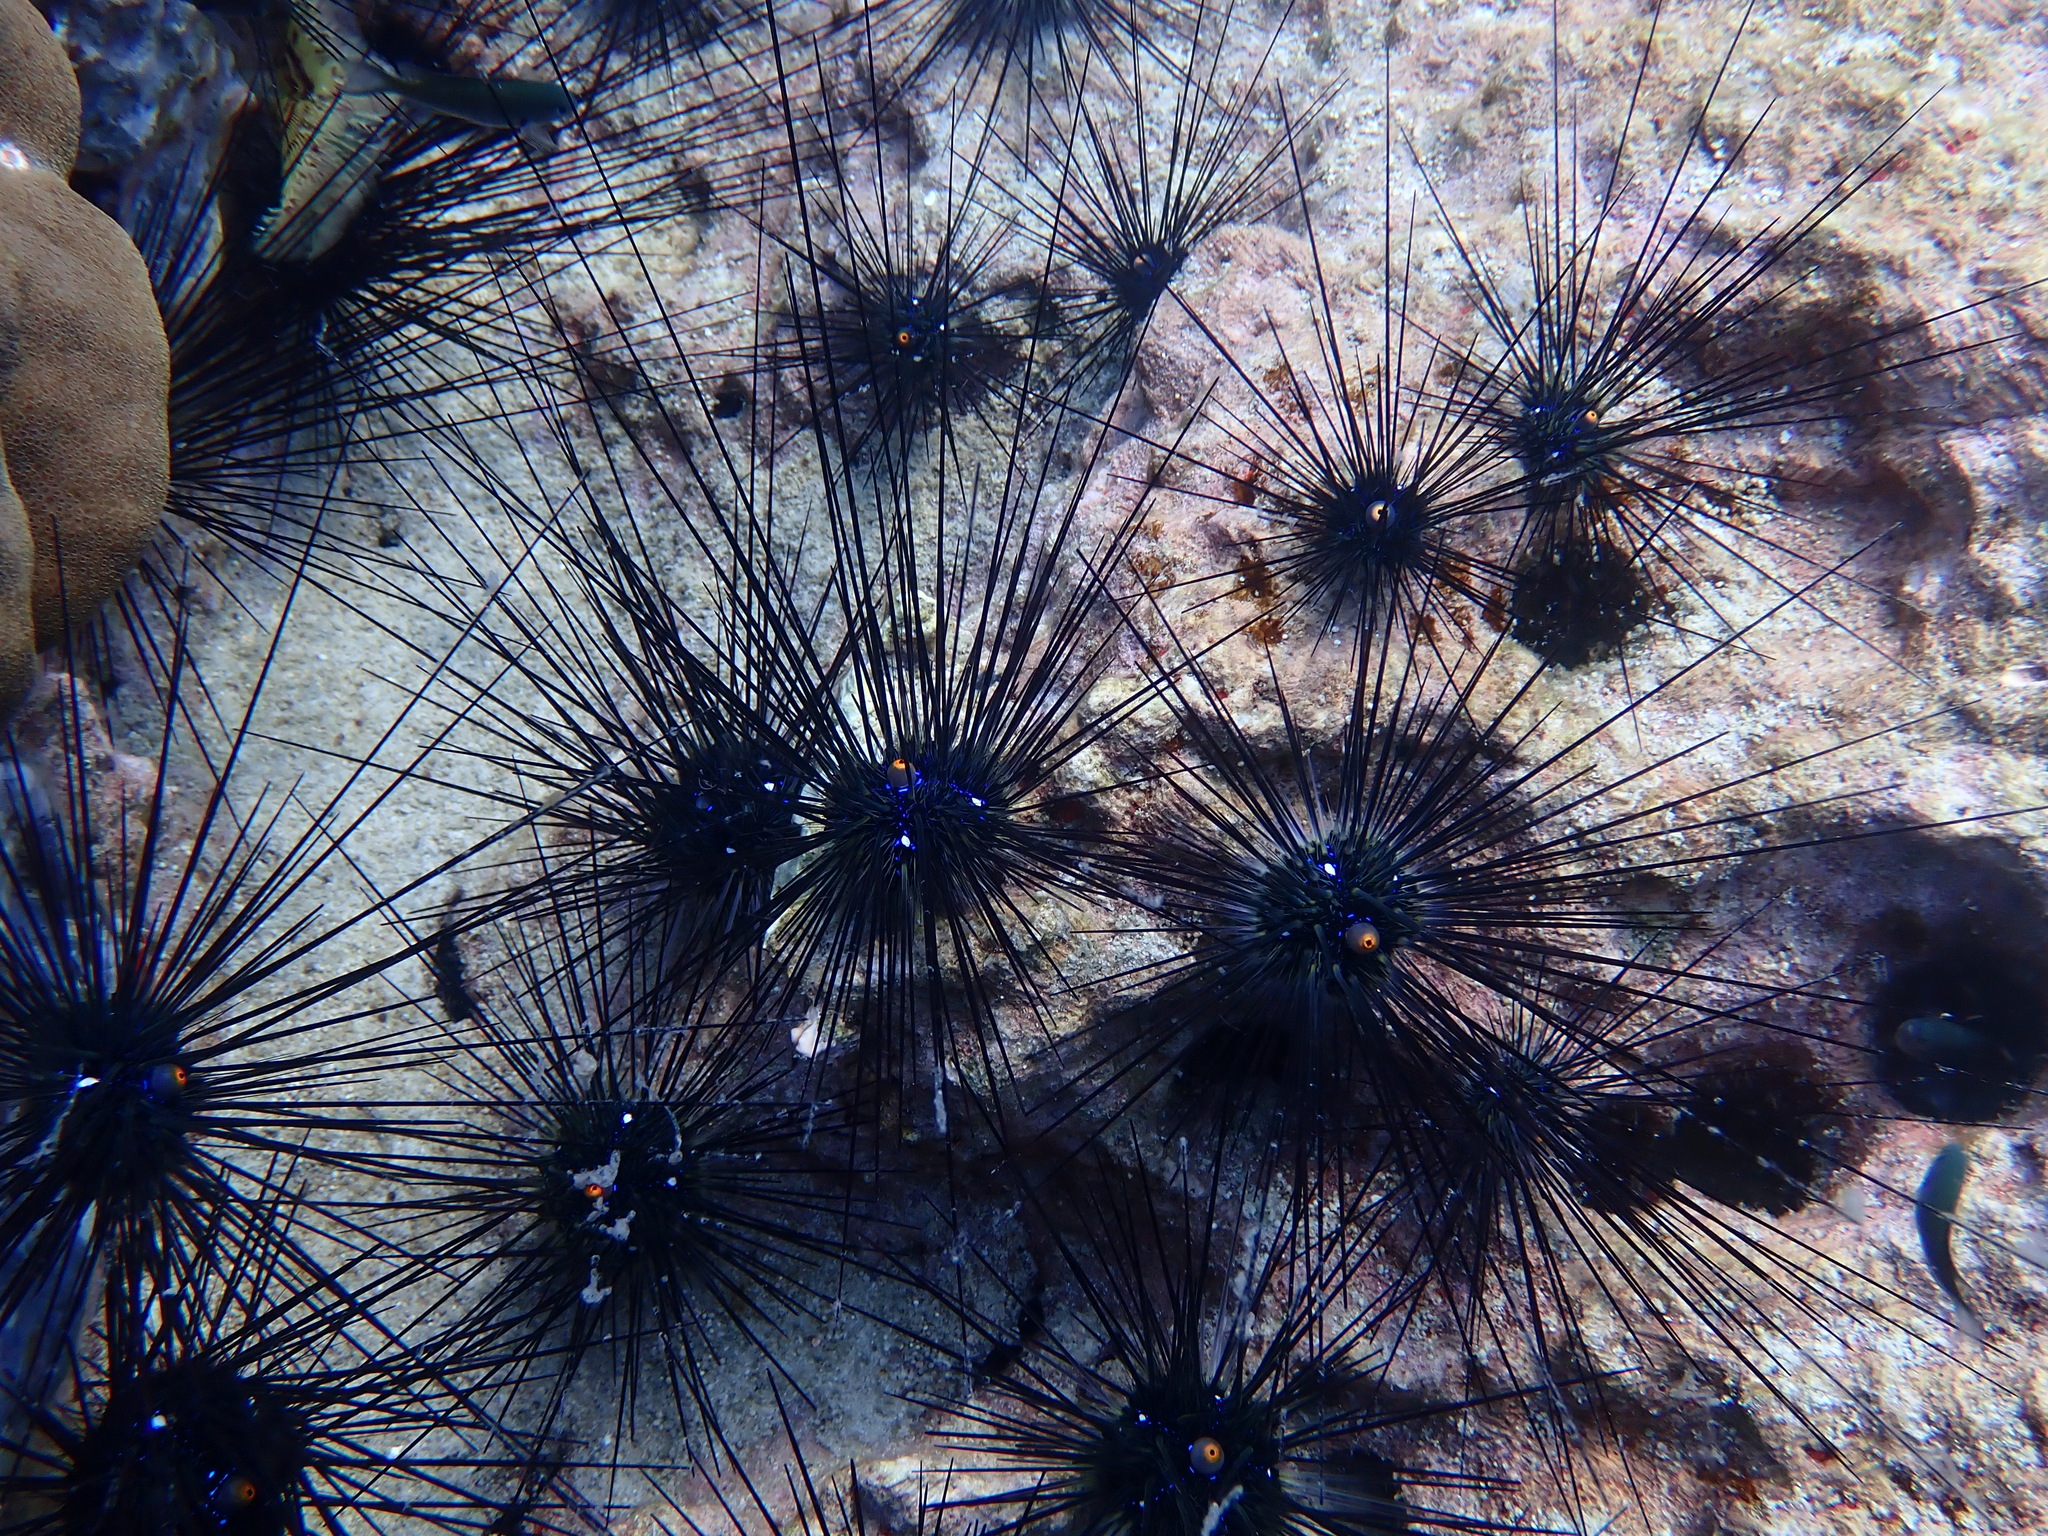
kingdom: Animalia
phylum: Echinodermata
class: Echinoidea
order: Diadematoida
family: Diadematidae
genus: Diadema
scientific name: Diadema setosum
